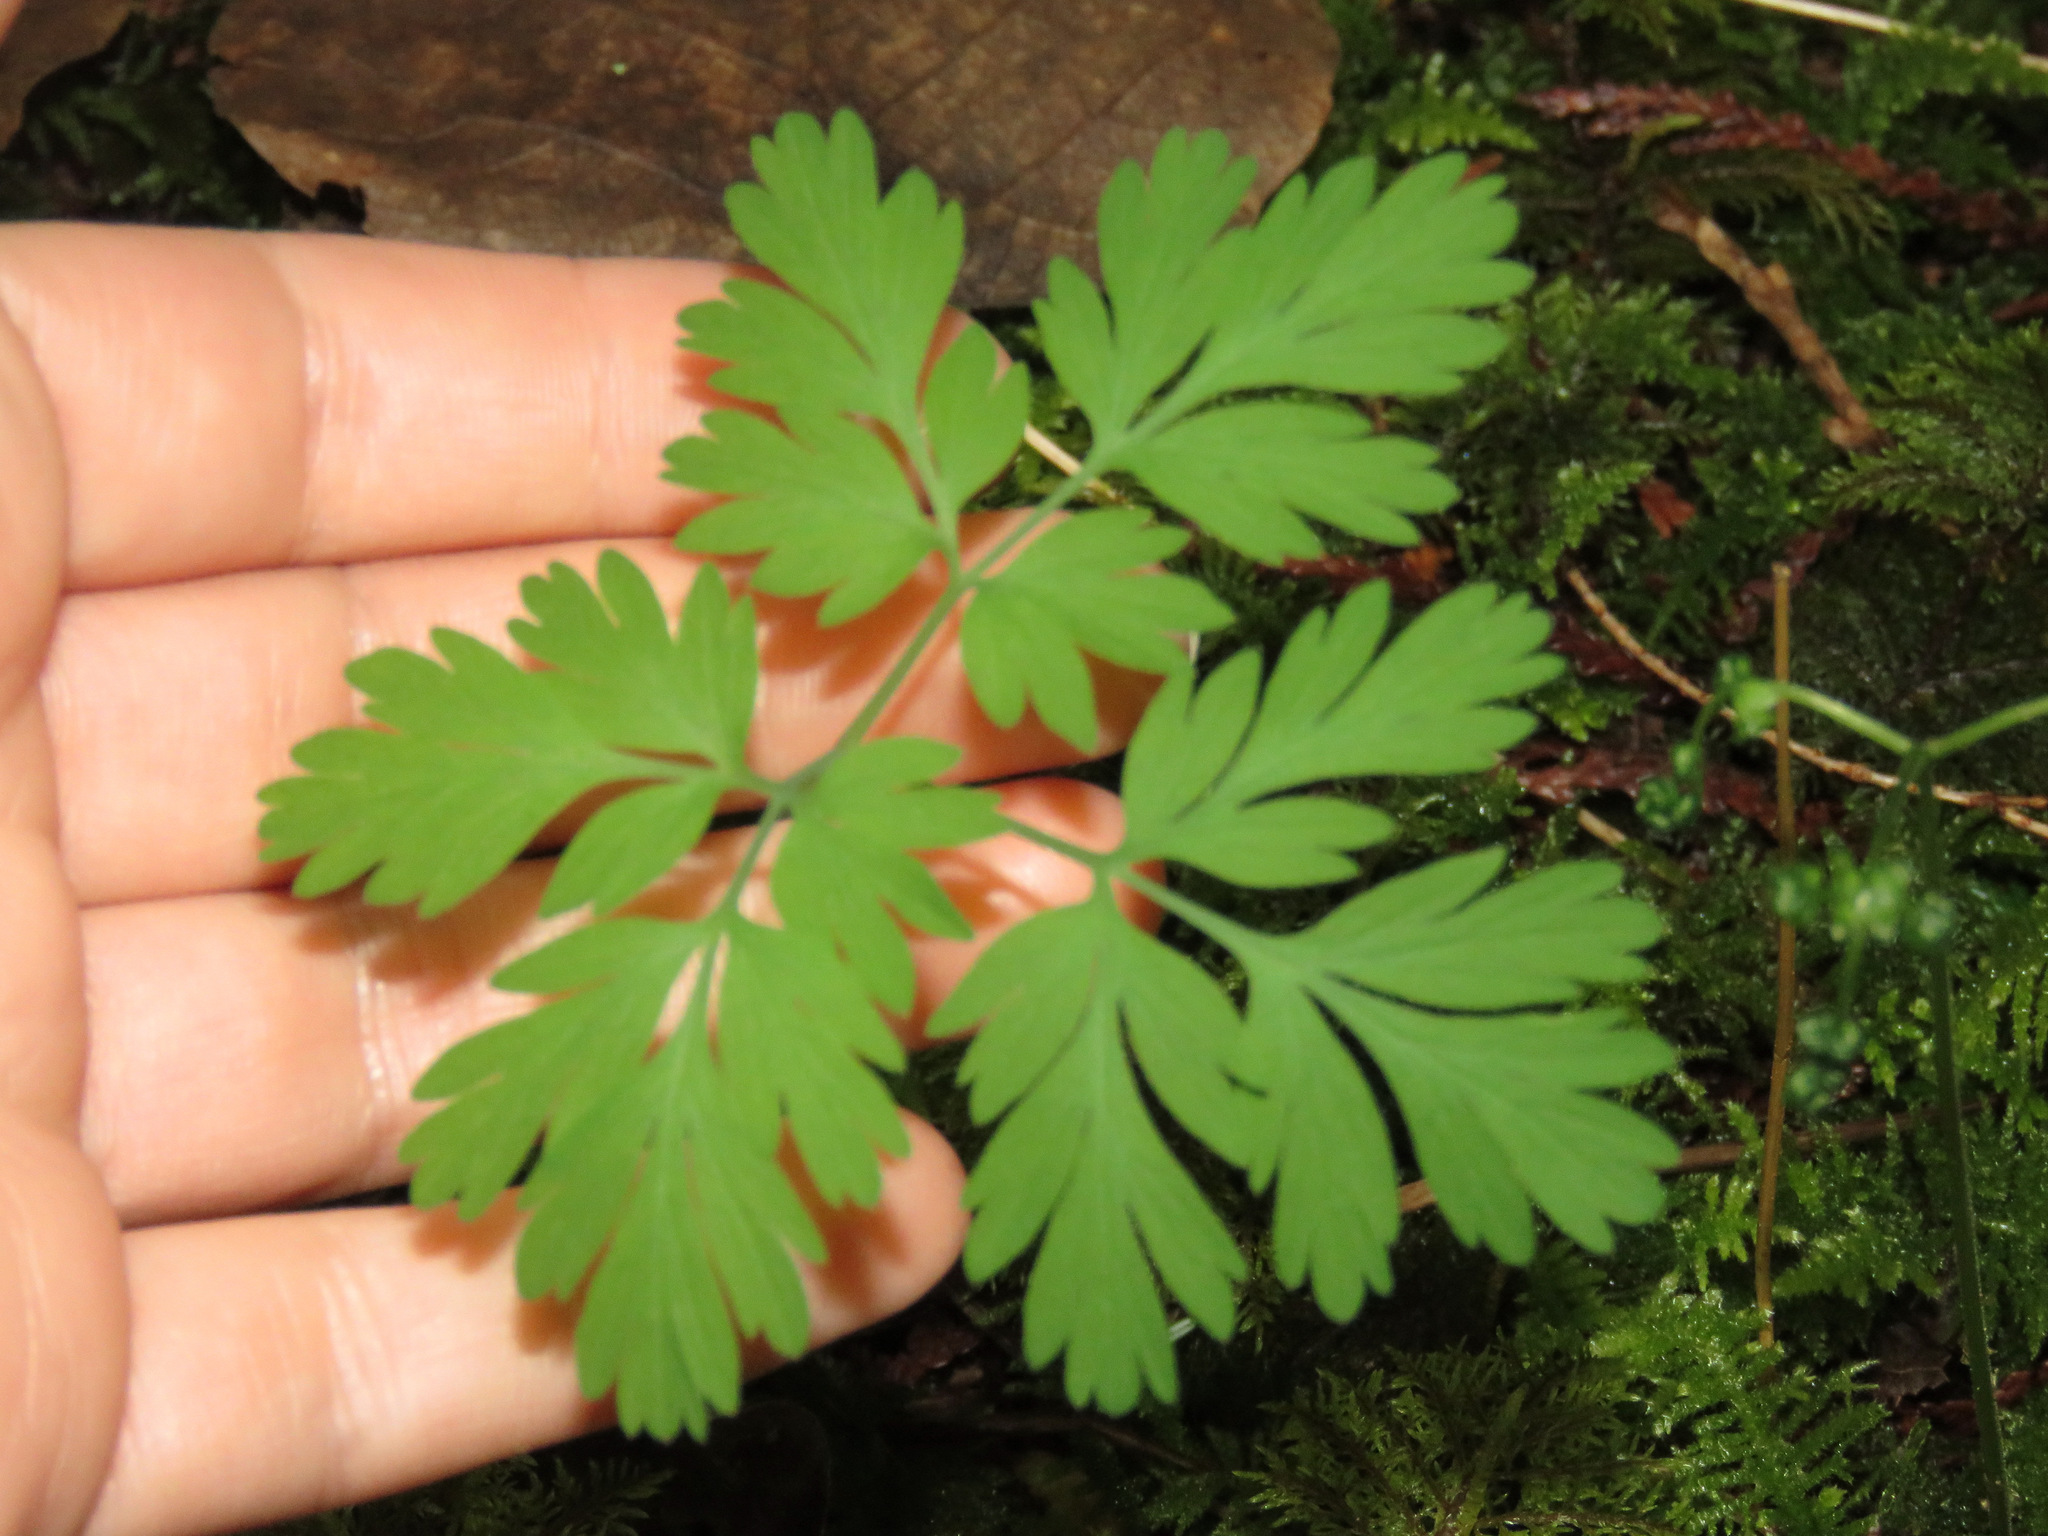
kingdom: Plantae
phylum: Tracheophyta
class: Magnoliopsida
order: Ranunculales
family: Papaveraceae
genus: Dicentra
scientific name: Dicentra formosa
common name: Bleeding-heart
